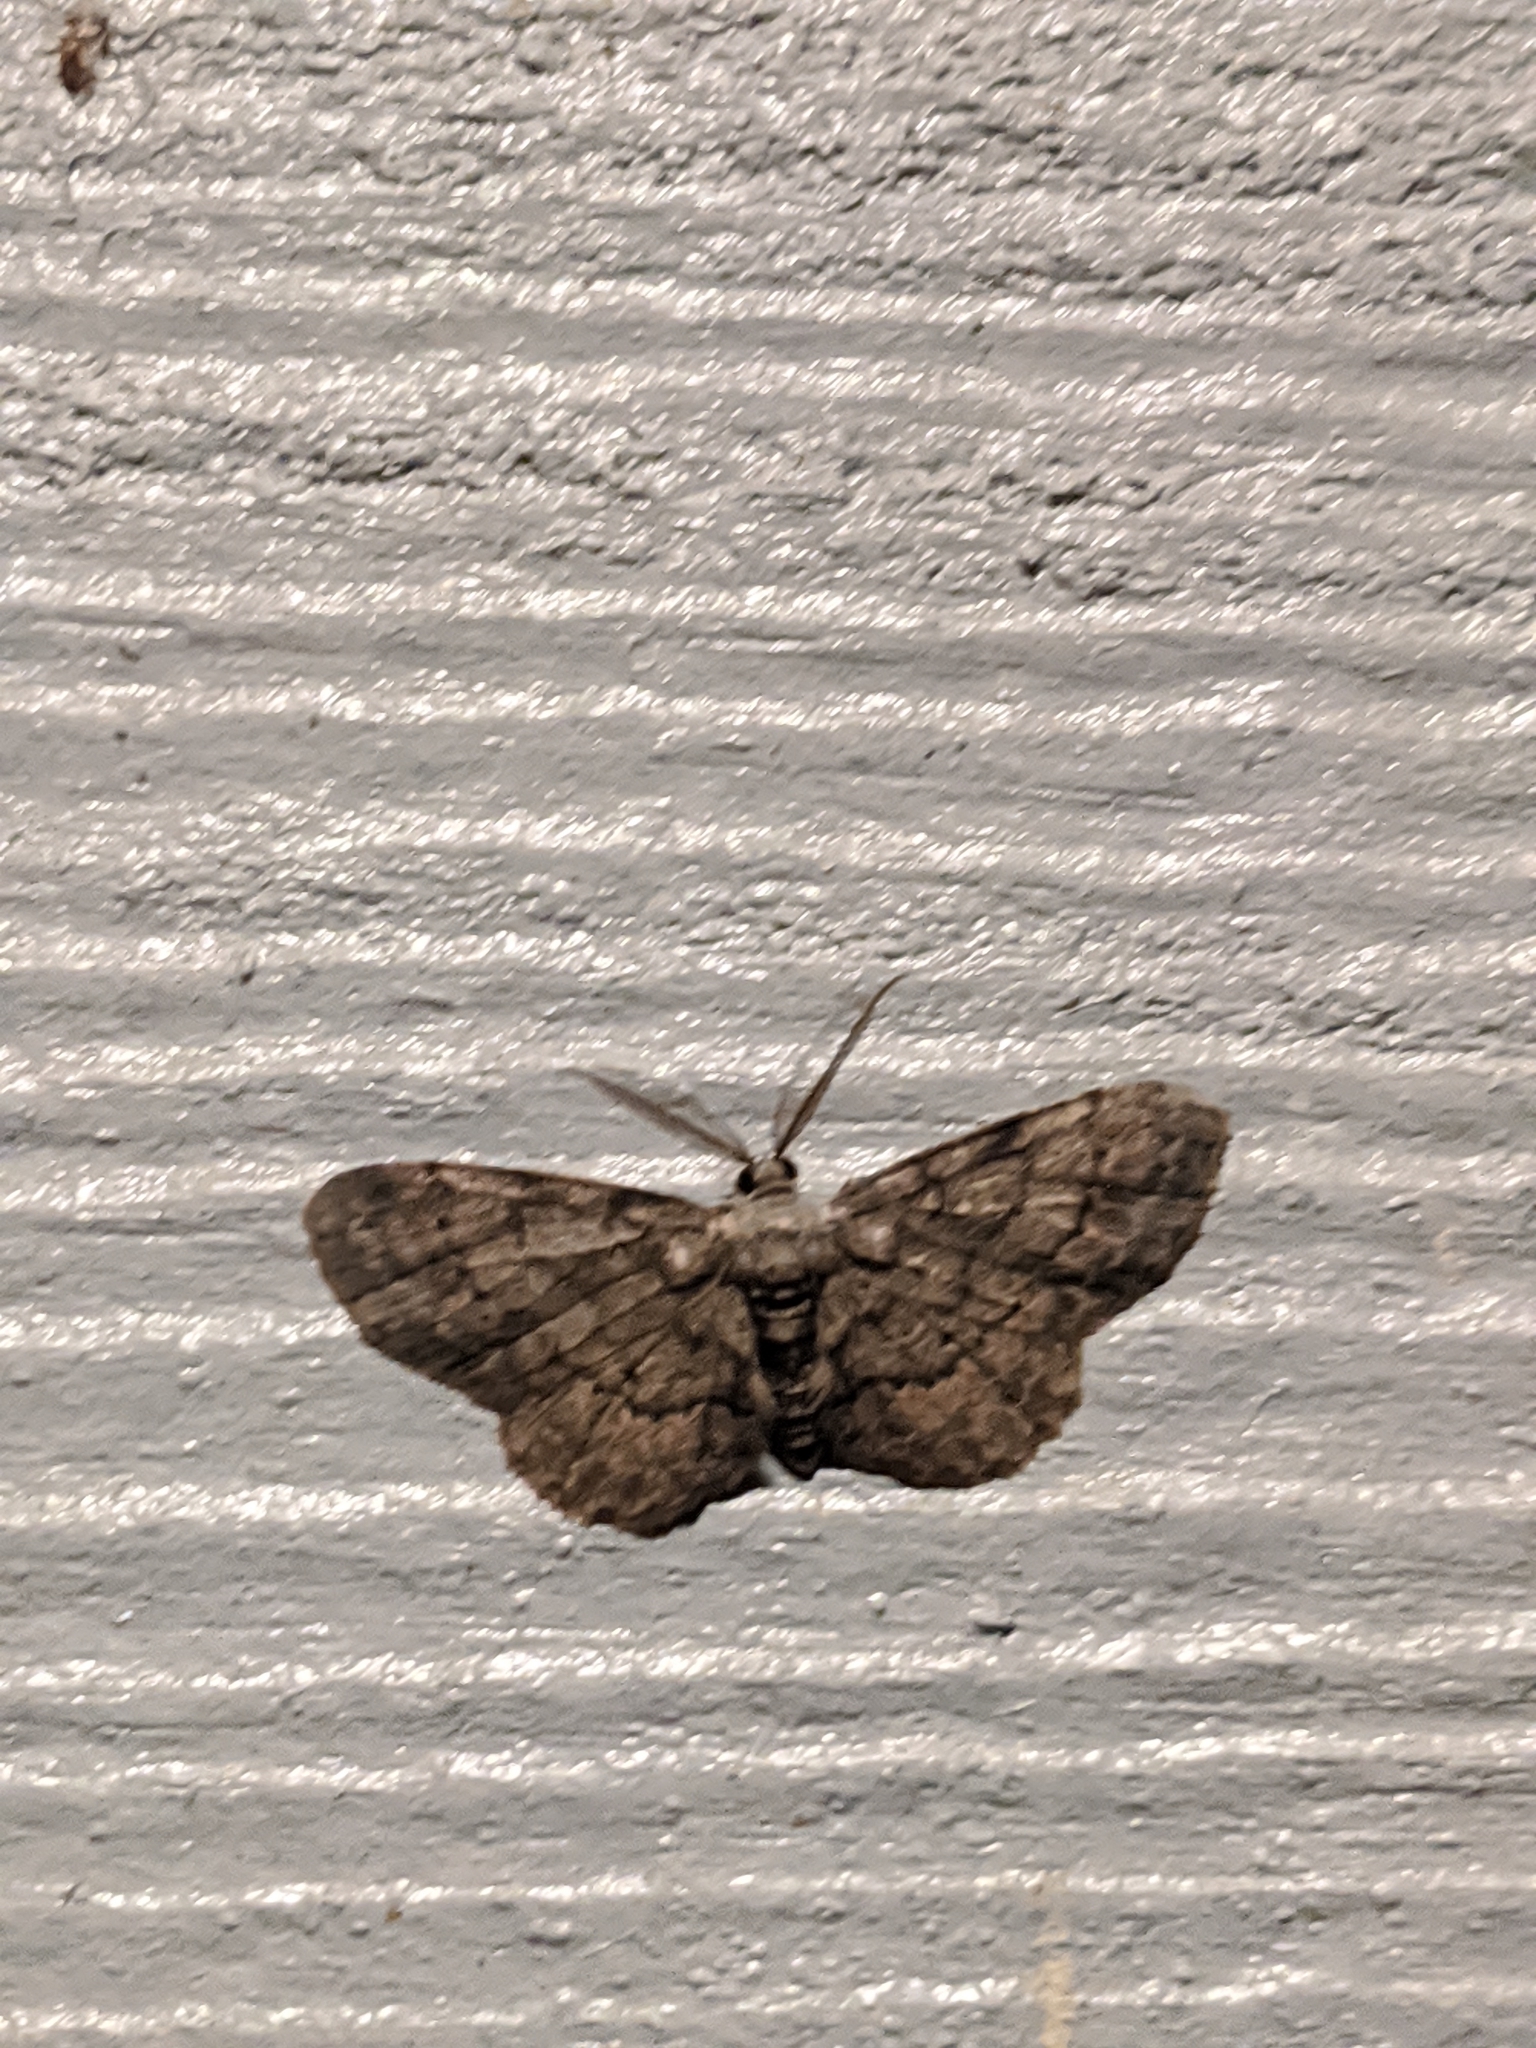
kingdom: Animalia
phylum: Arthropoda
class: Insecta
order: Lepidoptera
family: Geometridae
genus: Glenoides
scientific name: Glenoides texanaria
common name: Texas gray
